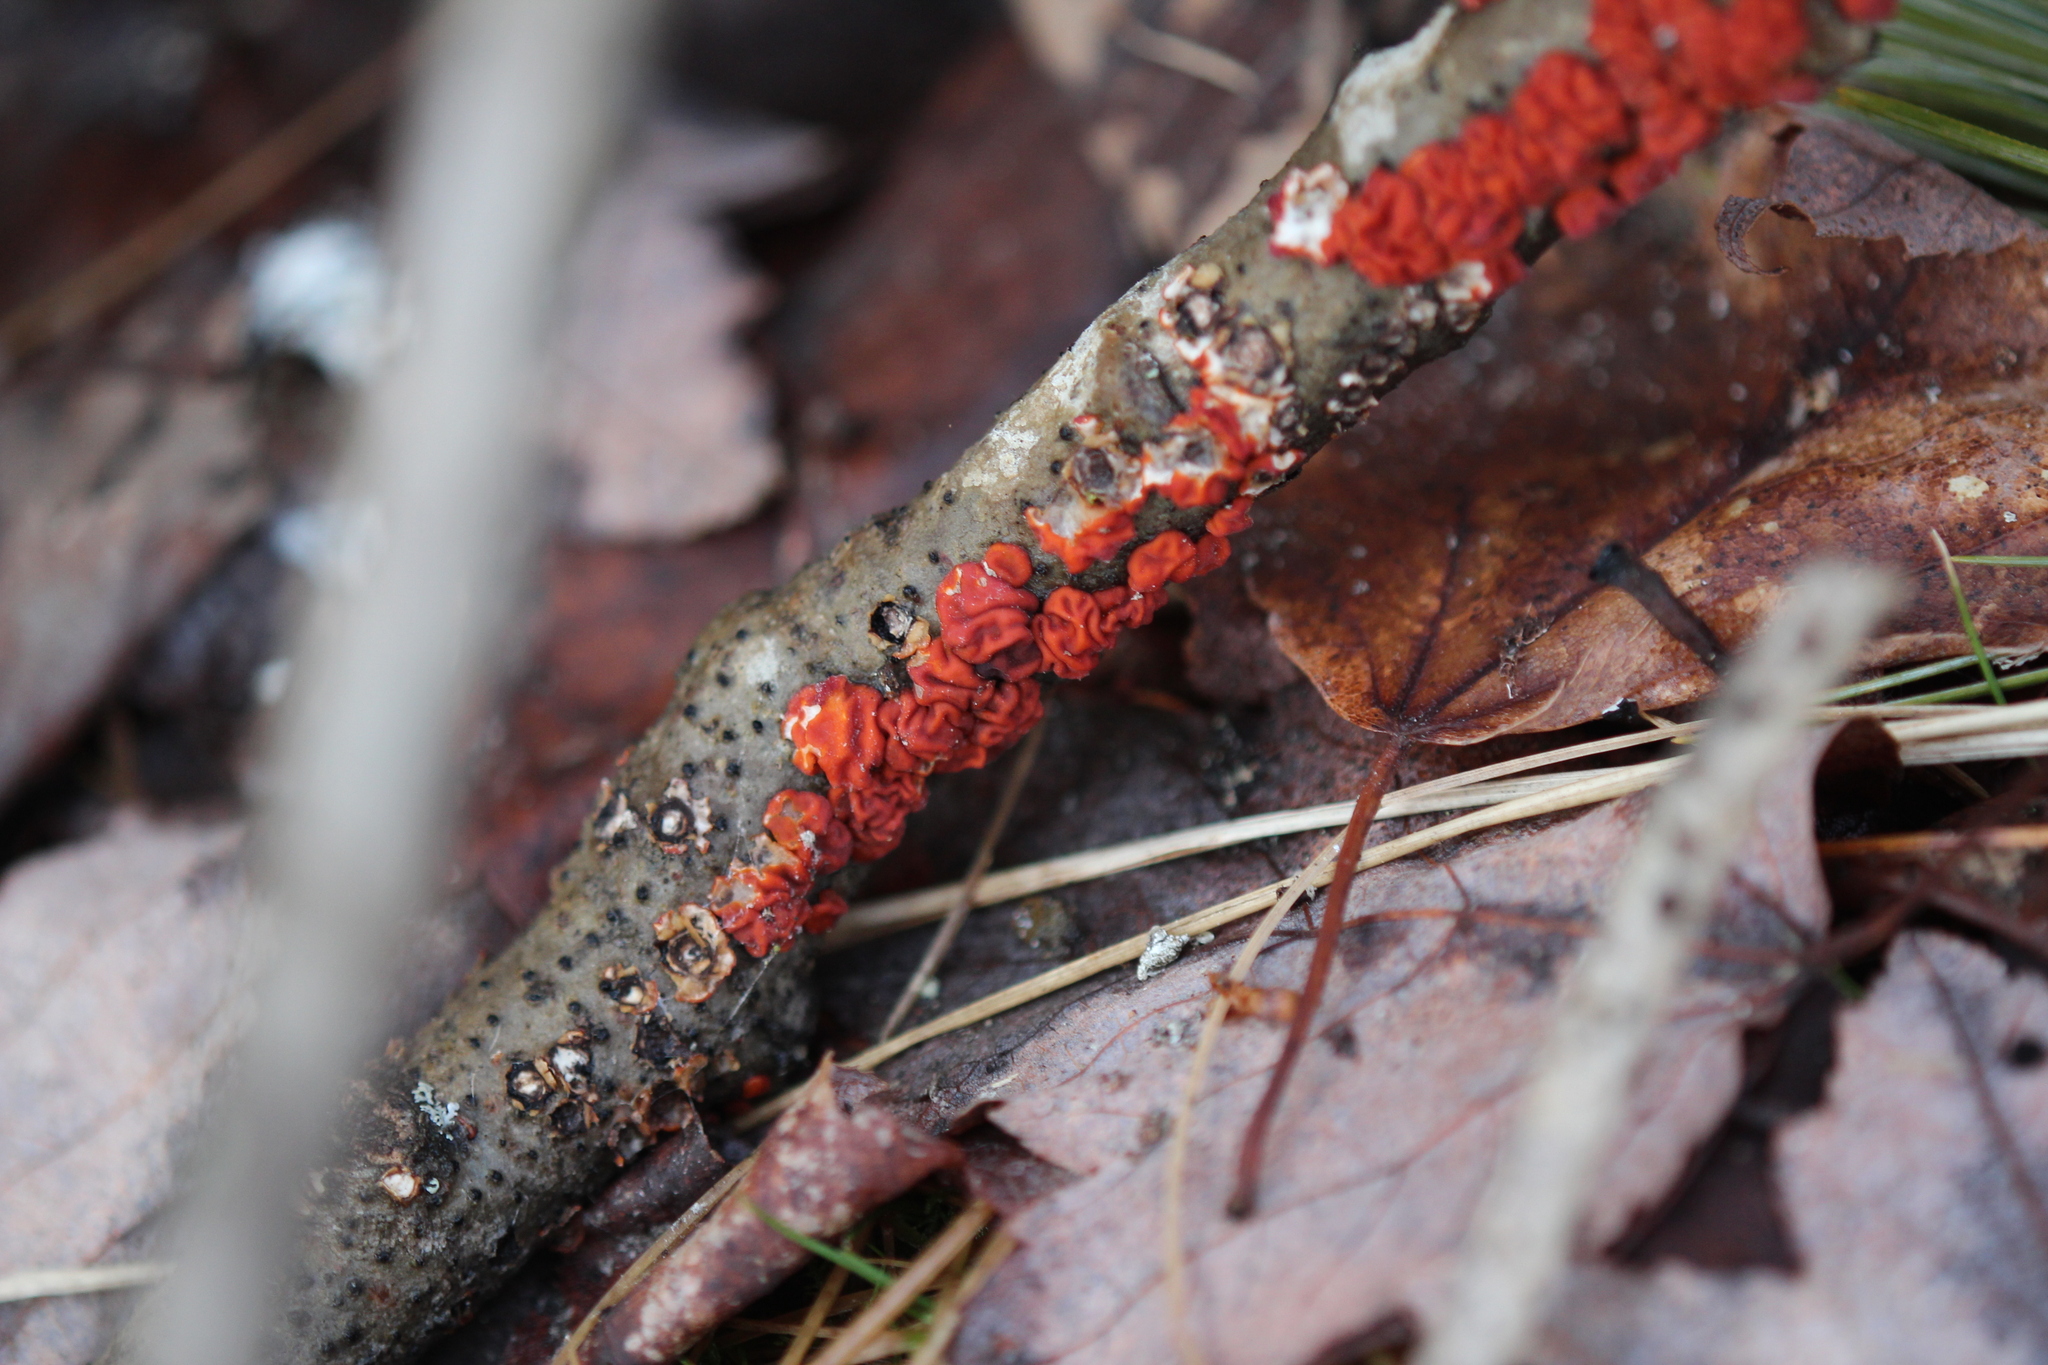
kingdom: Fungi
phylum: Basidiomycota
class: Agaricomycetes
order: Russulales
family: Peniophoraceae
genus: Peniophora
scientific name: Peniophora rufa
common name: Red tree brain fungus
